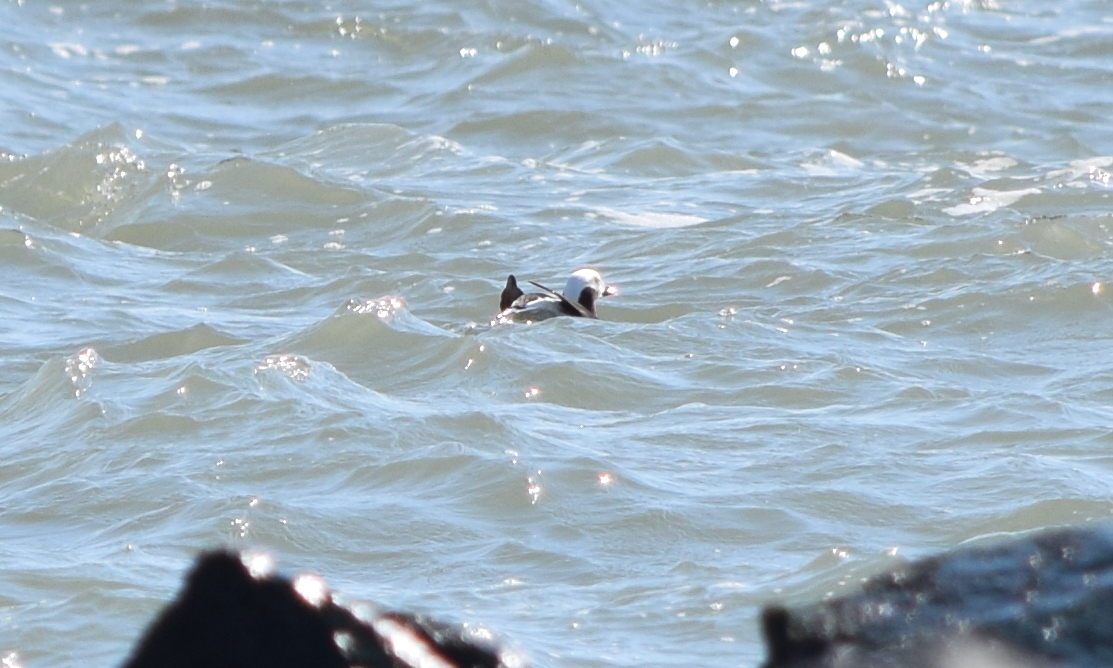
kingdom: Animalia
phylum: Chordata
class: Aves
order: Anseriformes
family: Anatidae
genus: Clangula
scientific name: Clangula hyemalis
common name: Long-tailed duck
